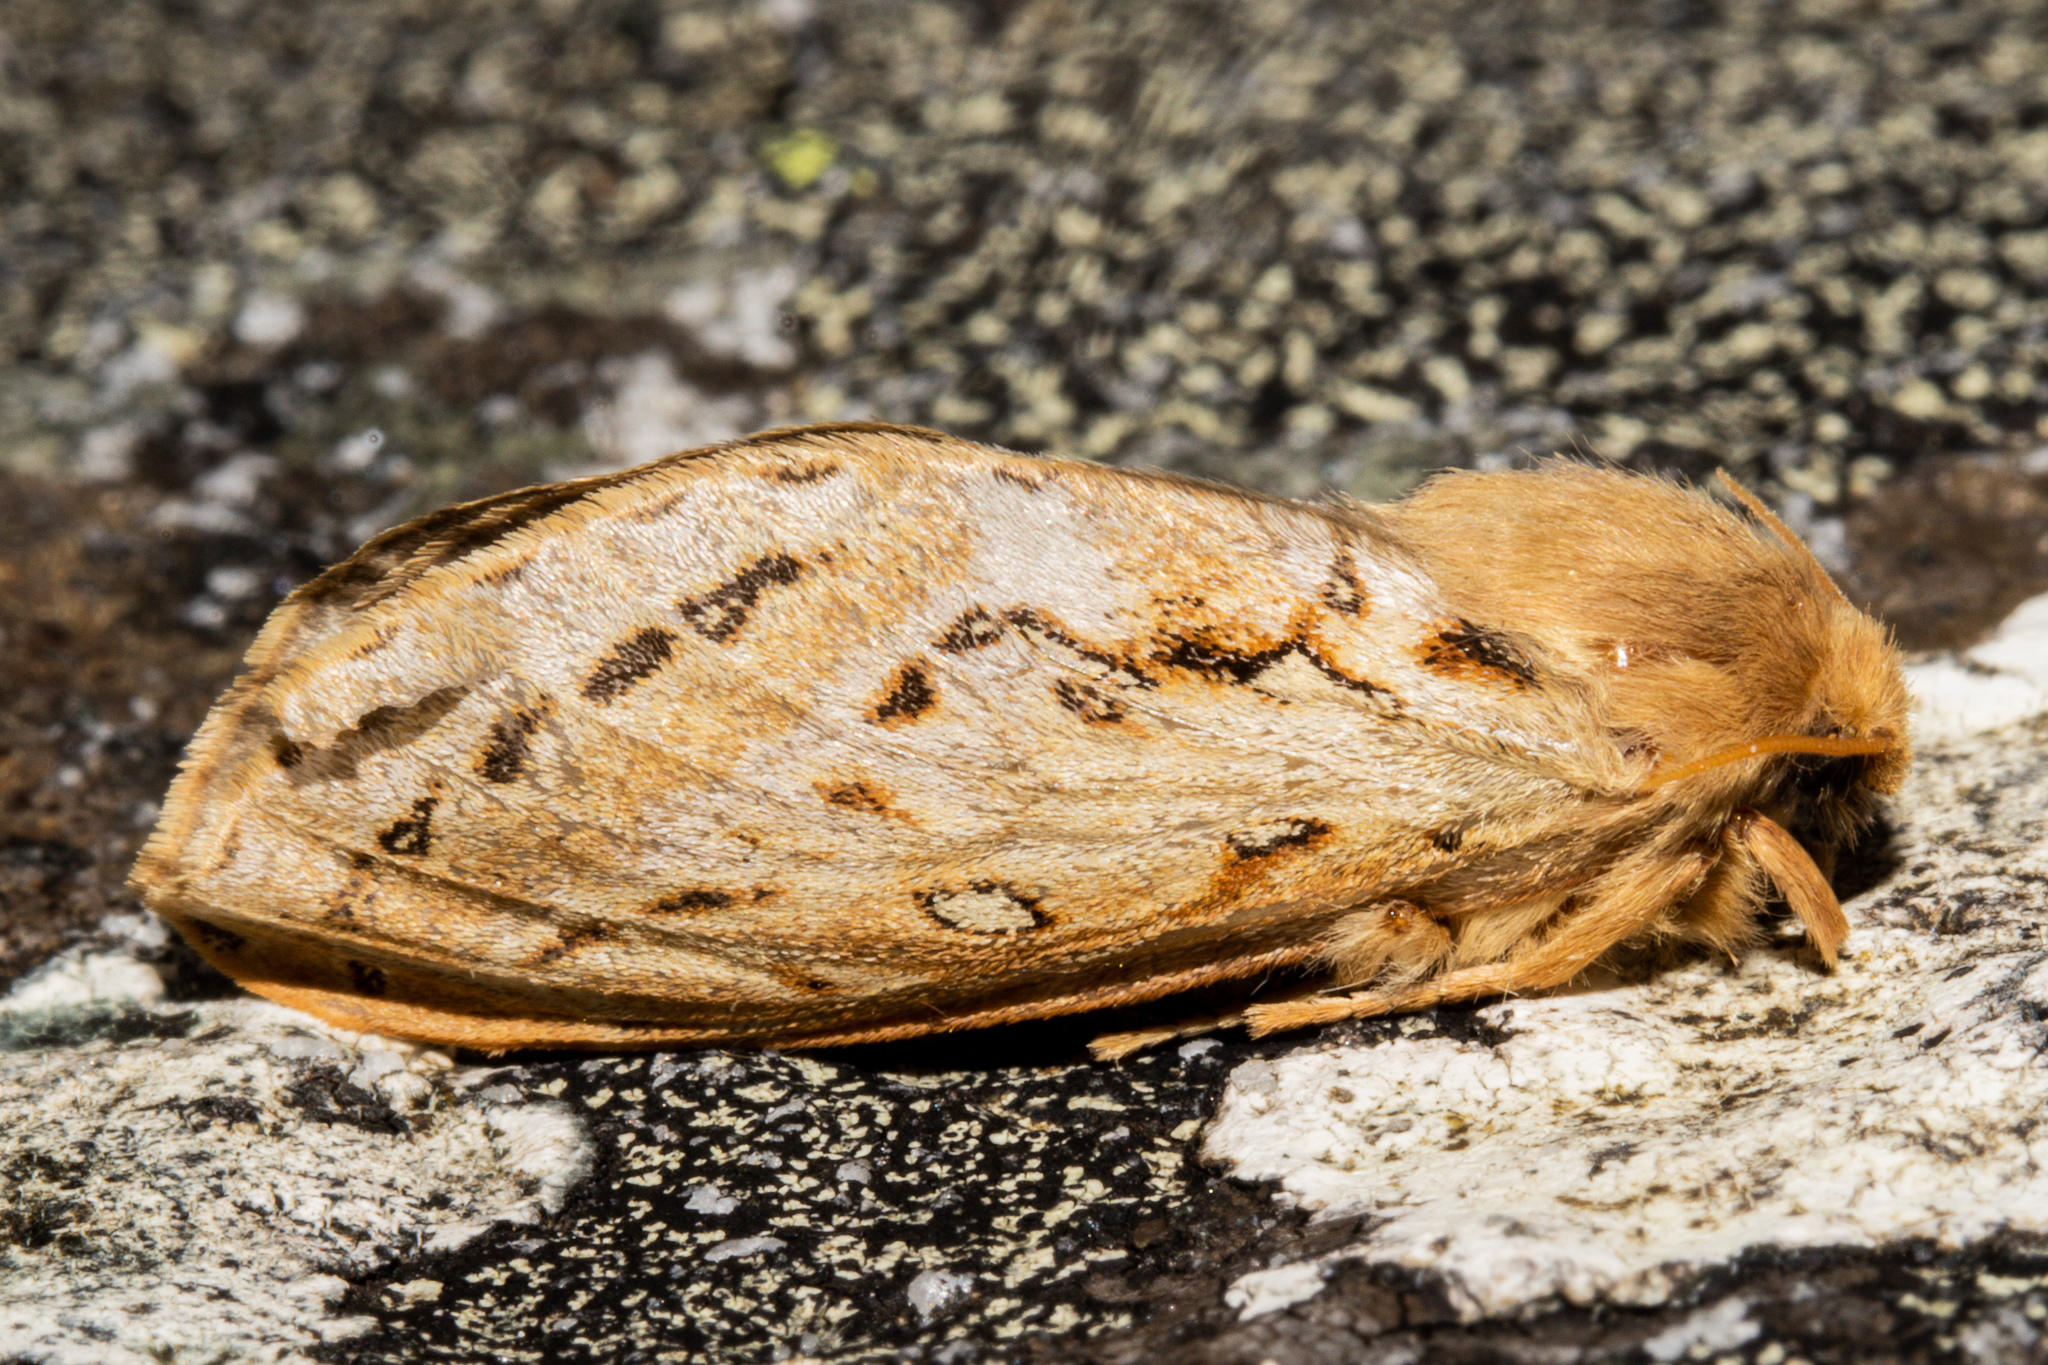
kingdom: Animalia
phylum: Arthropoda
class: Insecta
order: Lepidoptera
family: Hepialidae
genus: Dioxycanus
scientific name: Dioxycanus fusca
